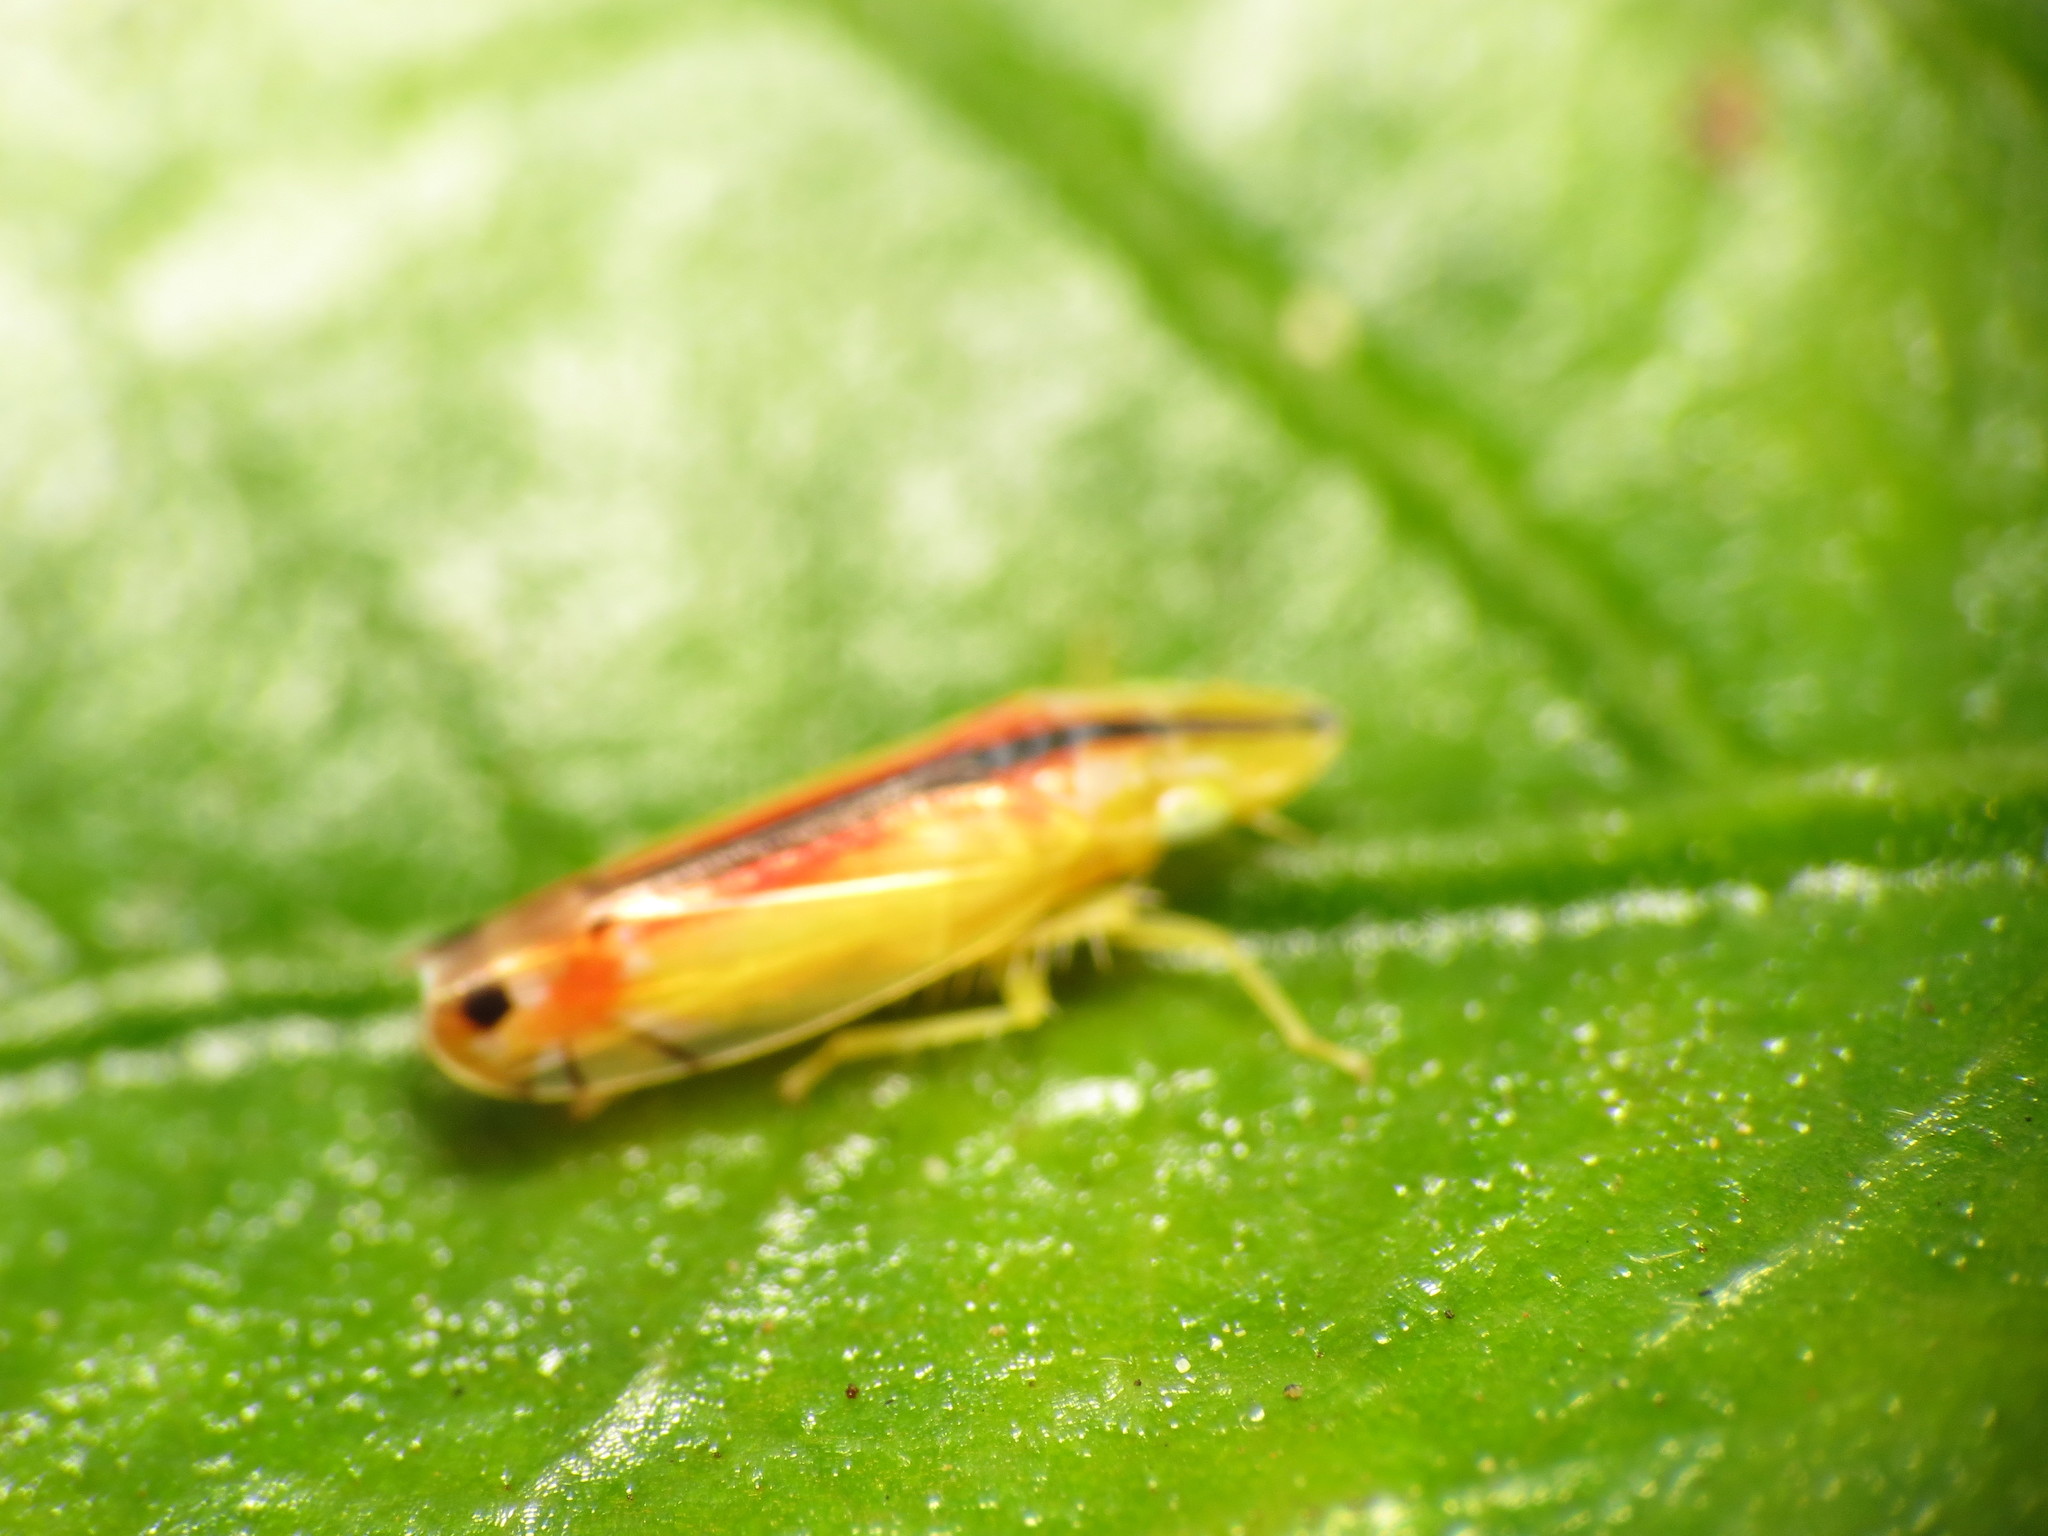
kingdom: Animalia
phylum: Arthropoda
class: Insecta
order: Hemiptera
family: Cicadellidae
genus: Sophonia
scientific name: Sophonia orientalis
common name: Two-spotted leafhopper
